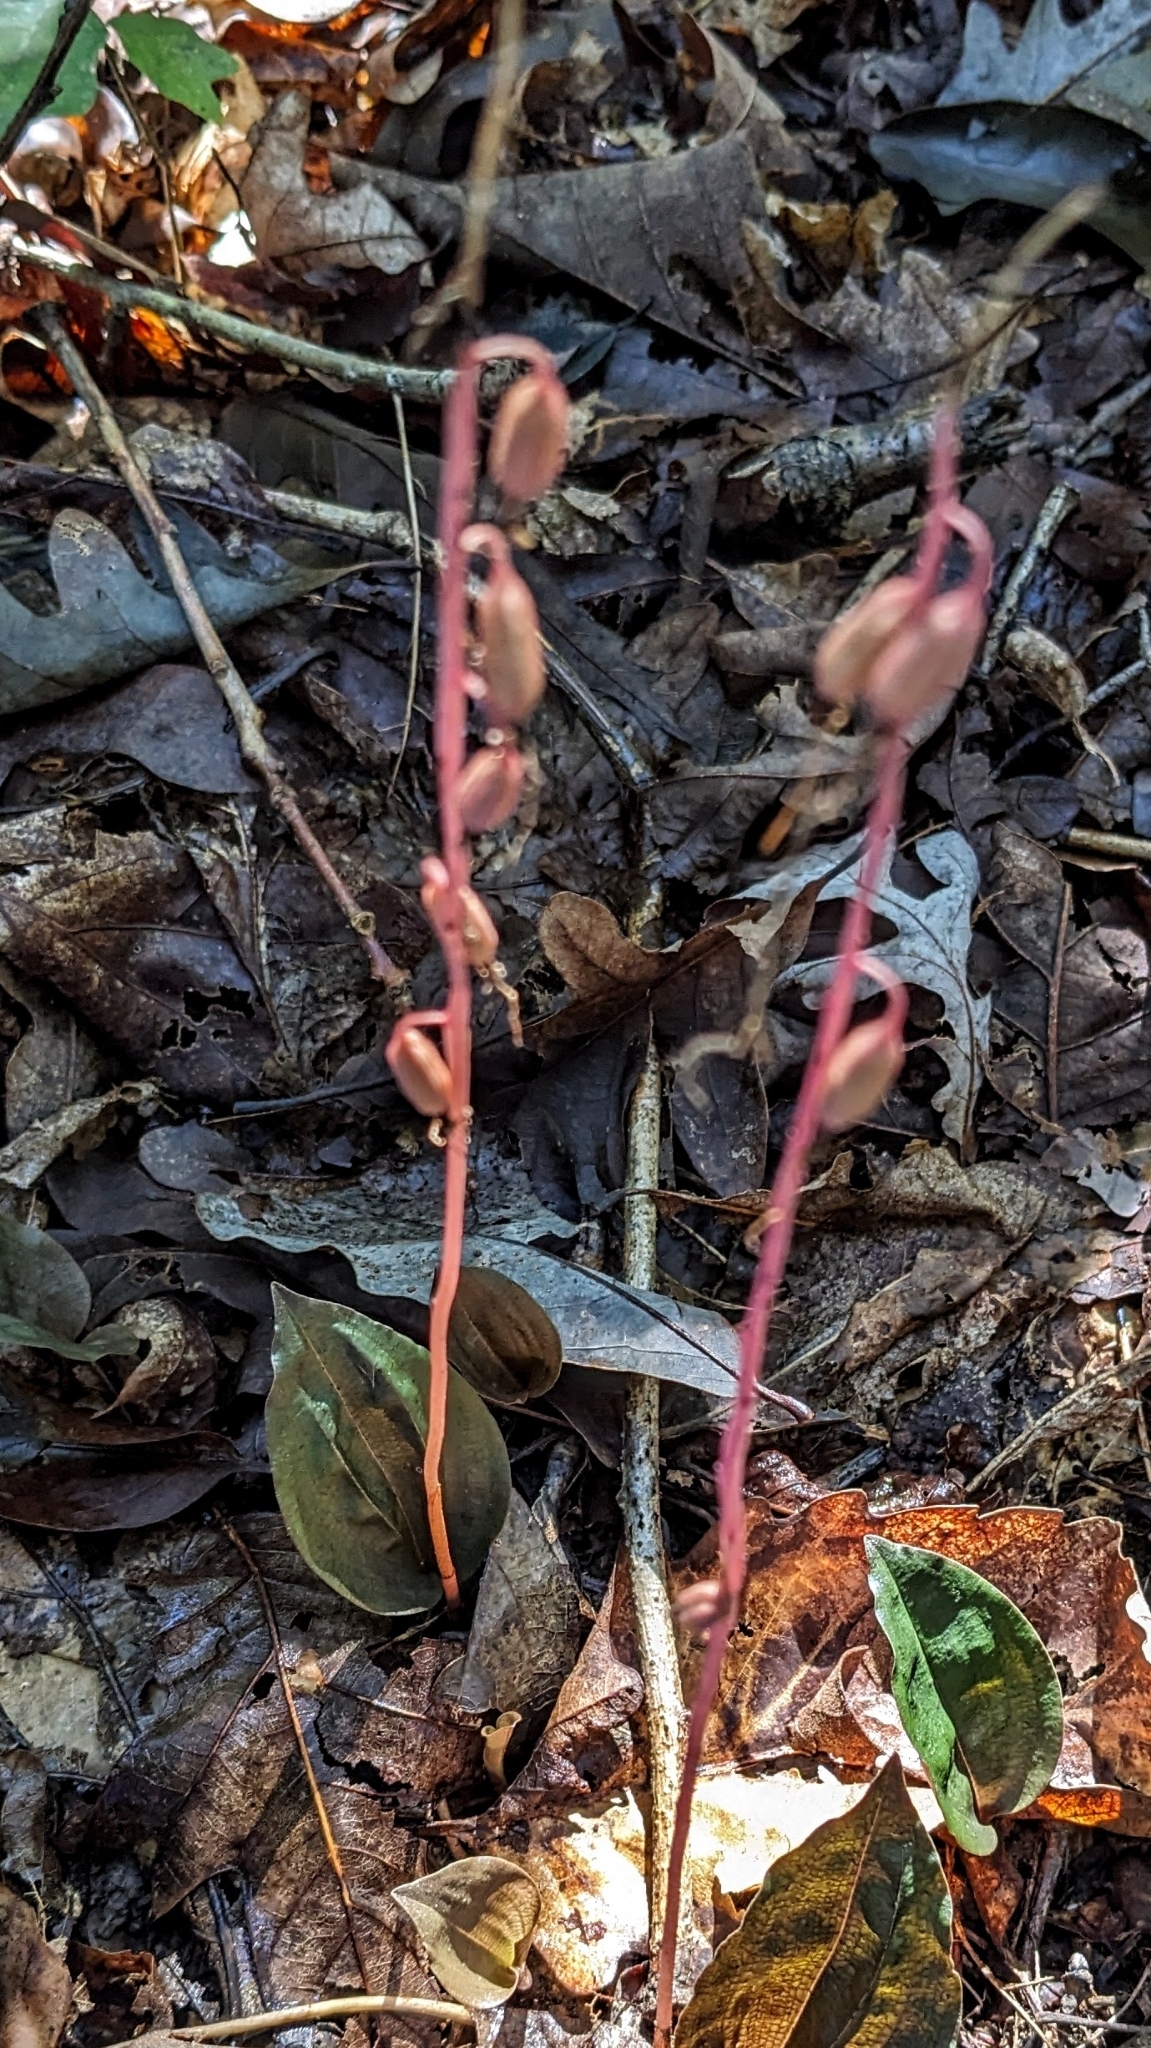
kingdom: Plantae
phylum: Tracheophyta
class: Liliopsida
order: Asparagales
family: Orchidaceae
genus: Tipularia
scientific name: Tipularia discolor
